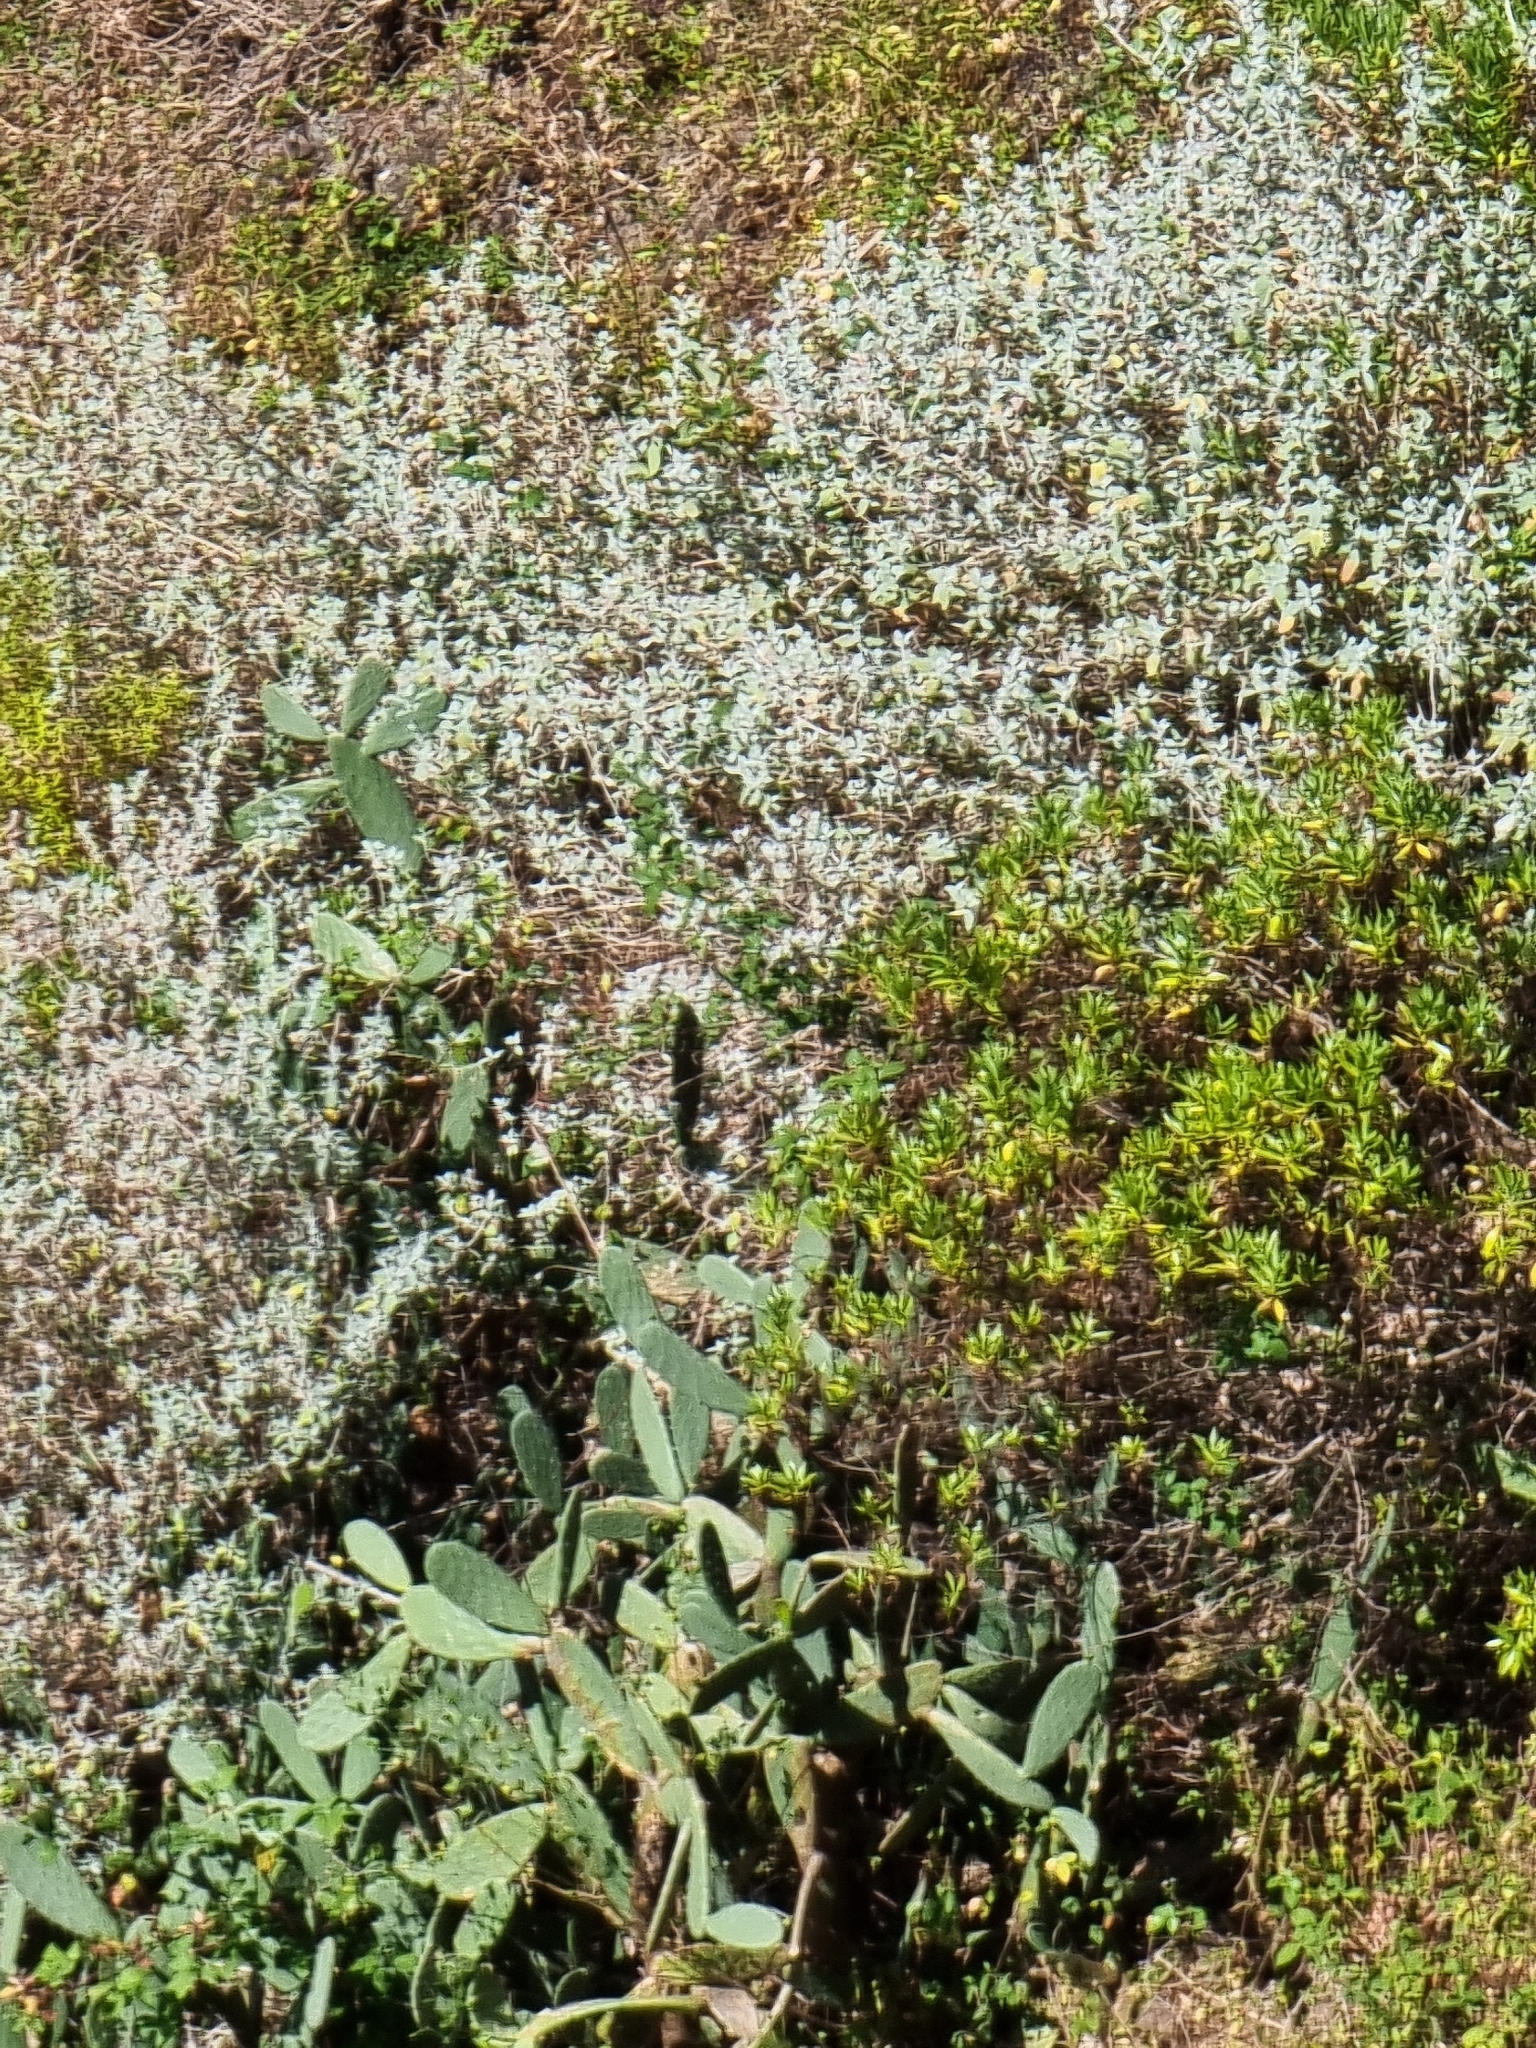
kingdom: Plantae
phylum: Tracheophyta
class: Magnoliopsida
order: Lamiales
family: Lamiaceae
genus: Teucrium
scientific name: Teucrium heterophyllum
